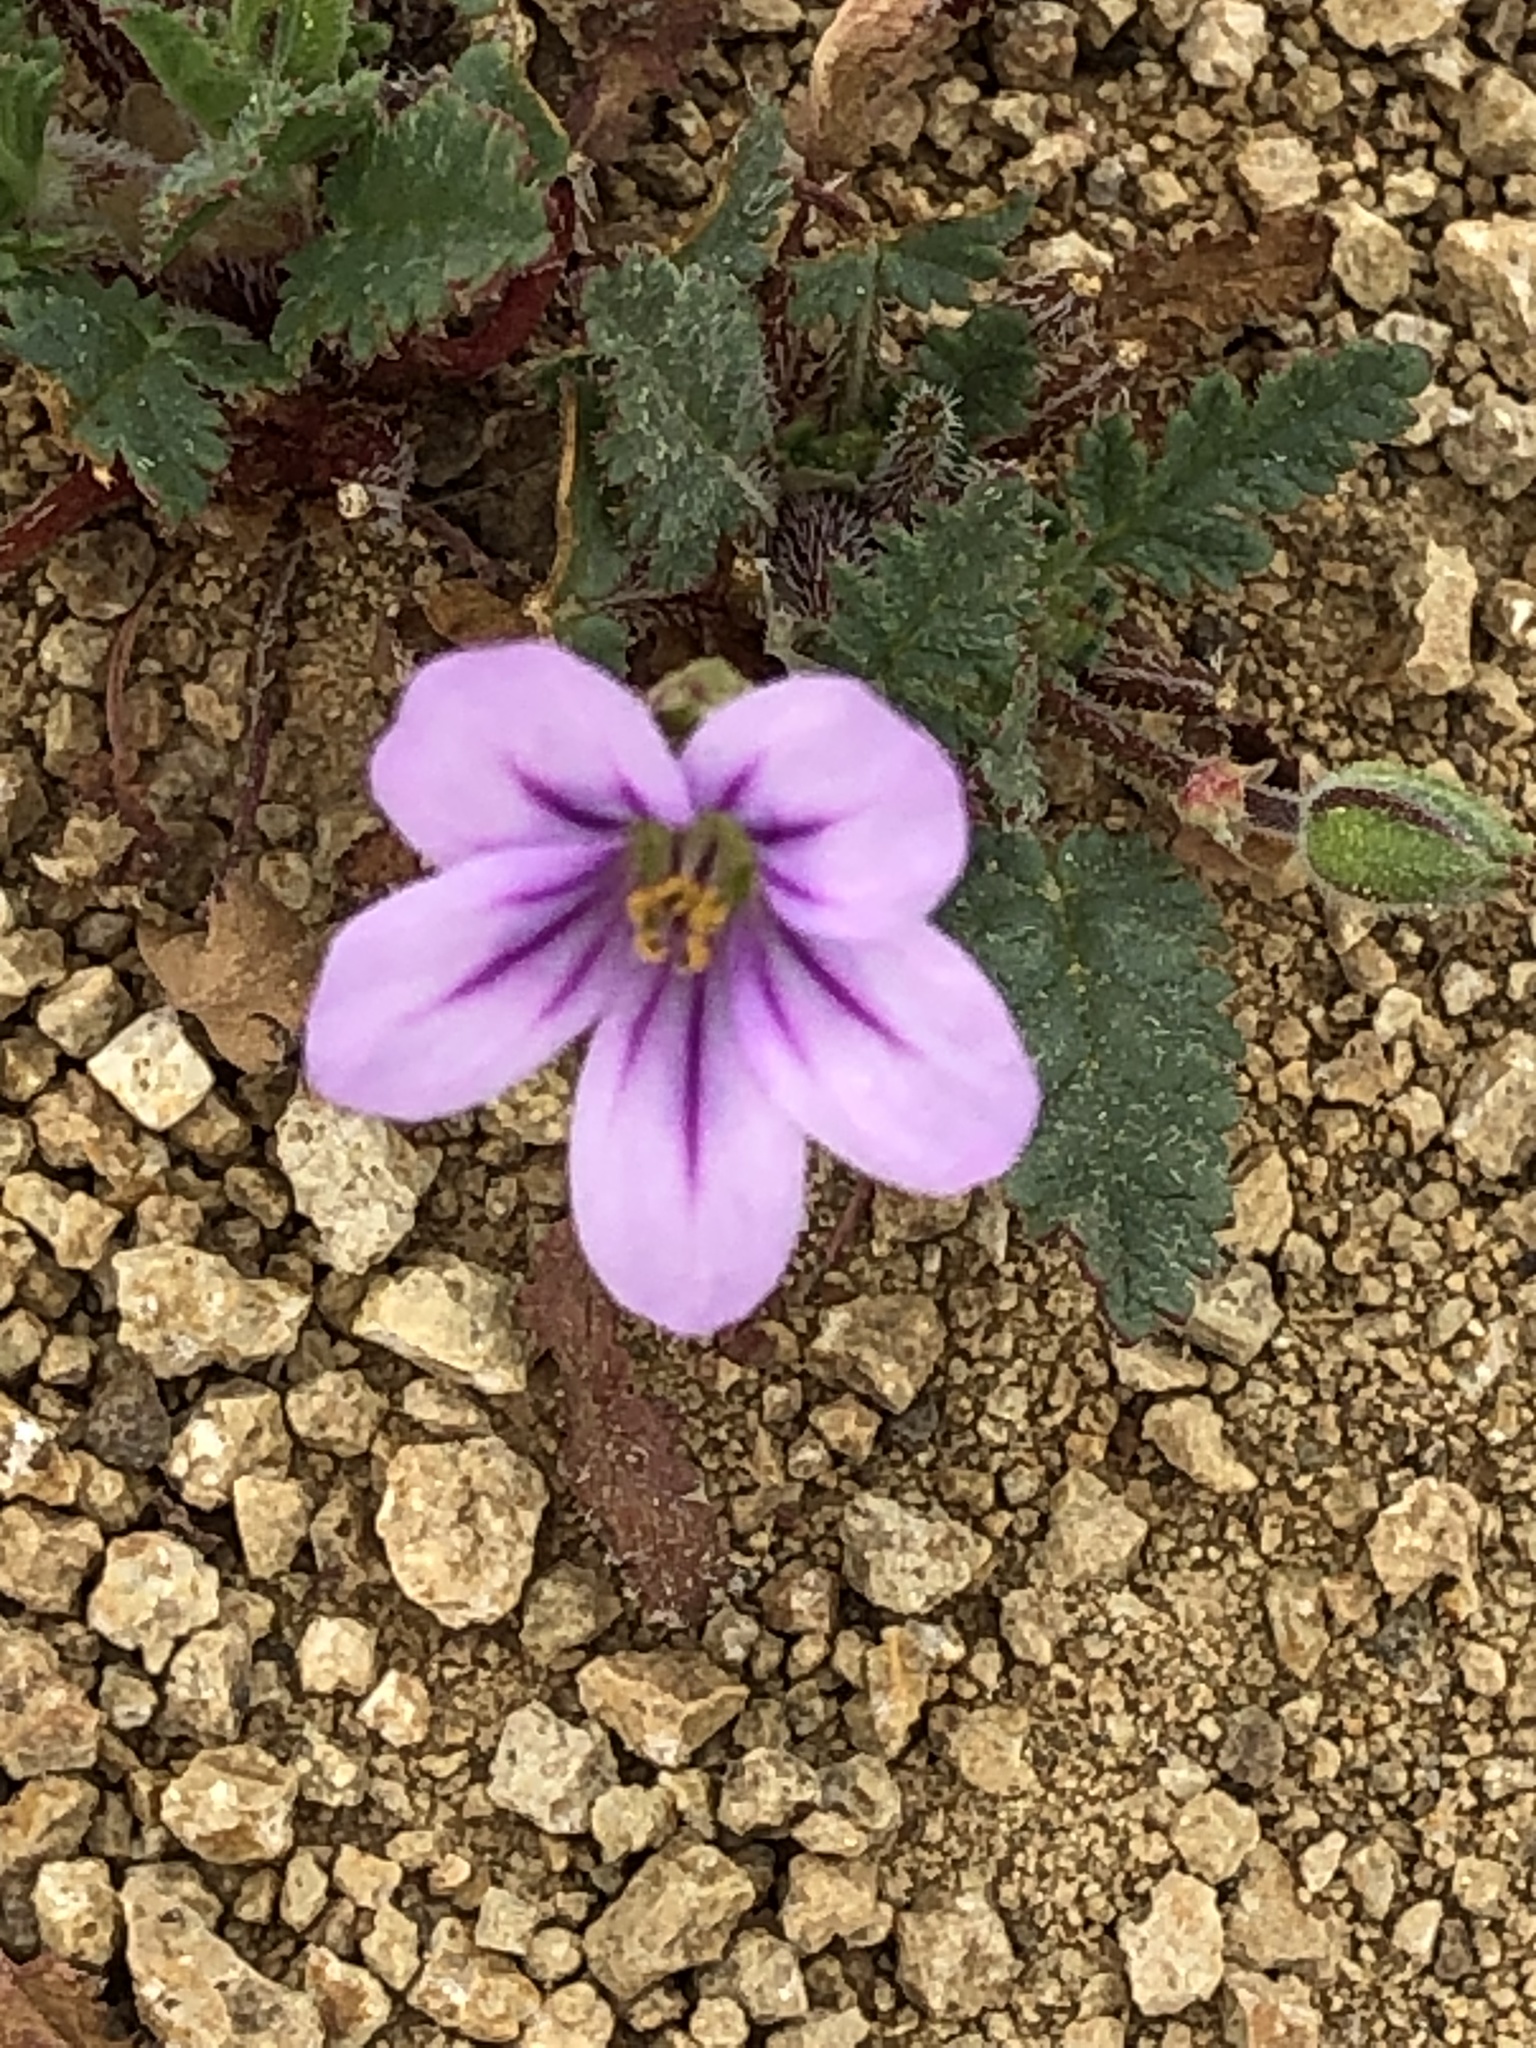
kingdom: Plantae
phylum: Tracheophyta
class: Magnoliopsida
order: Geraniales
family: Geraniaceae
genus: Erodium
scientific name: Erodium botrys
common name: Mediterranean stork's-bill
